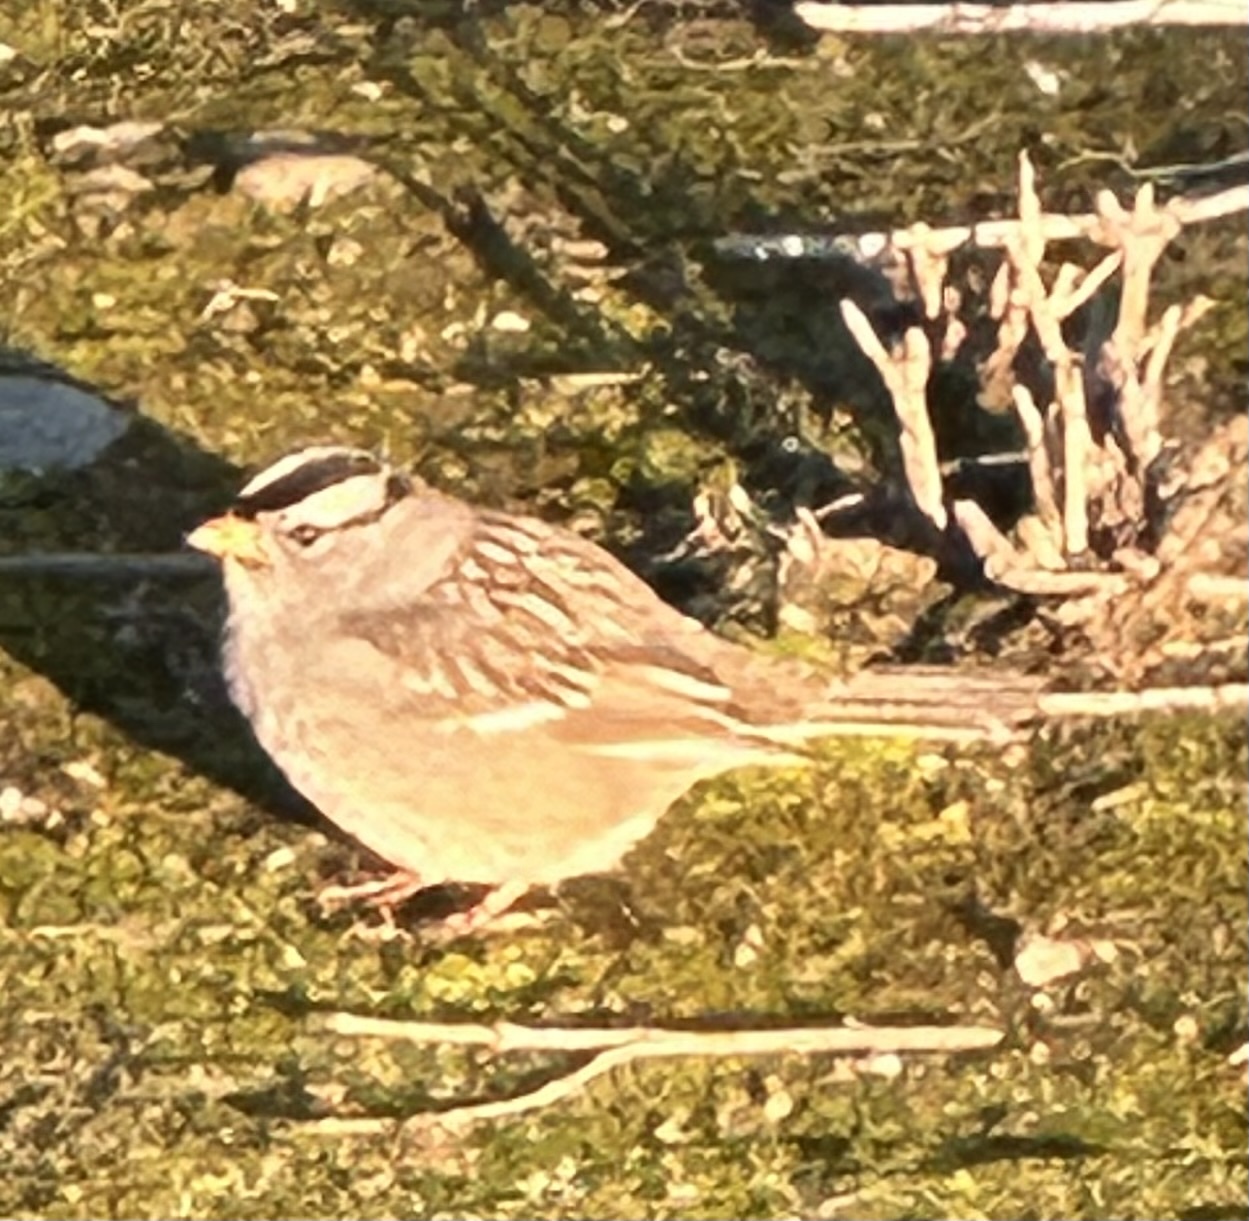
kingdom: Animalia
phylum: Chordata
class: Aves
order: Passeriformes
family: Passerellidae
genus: Zonotrichia
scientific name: Zonotrichia leucophrys
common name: White-crowned sparrow
